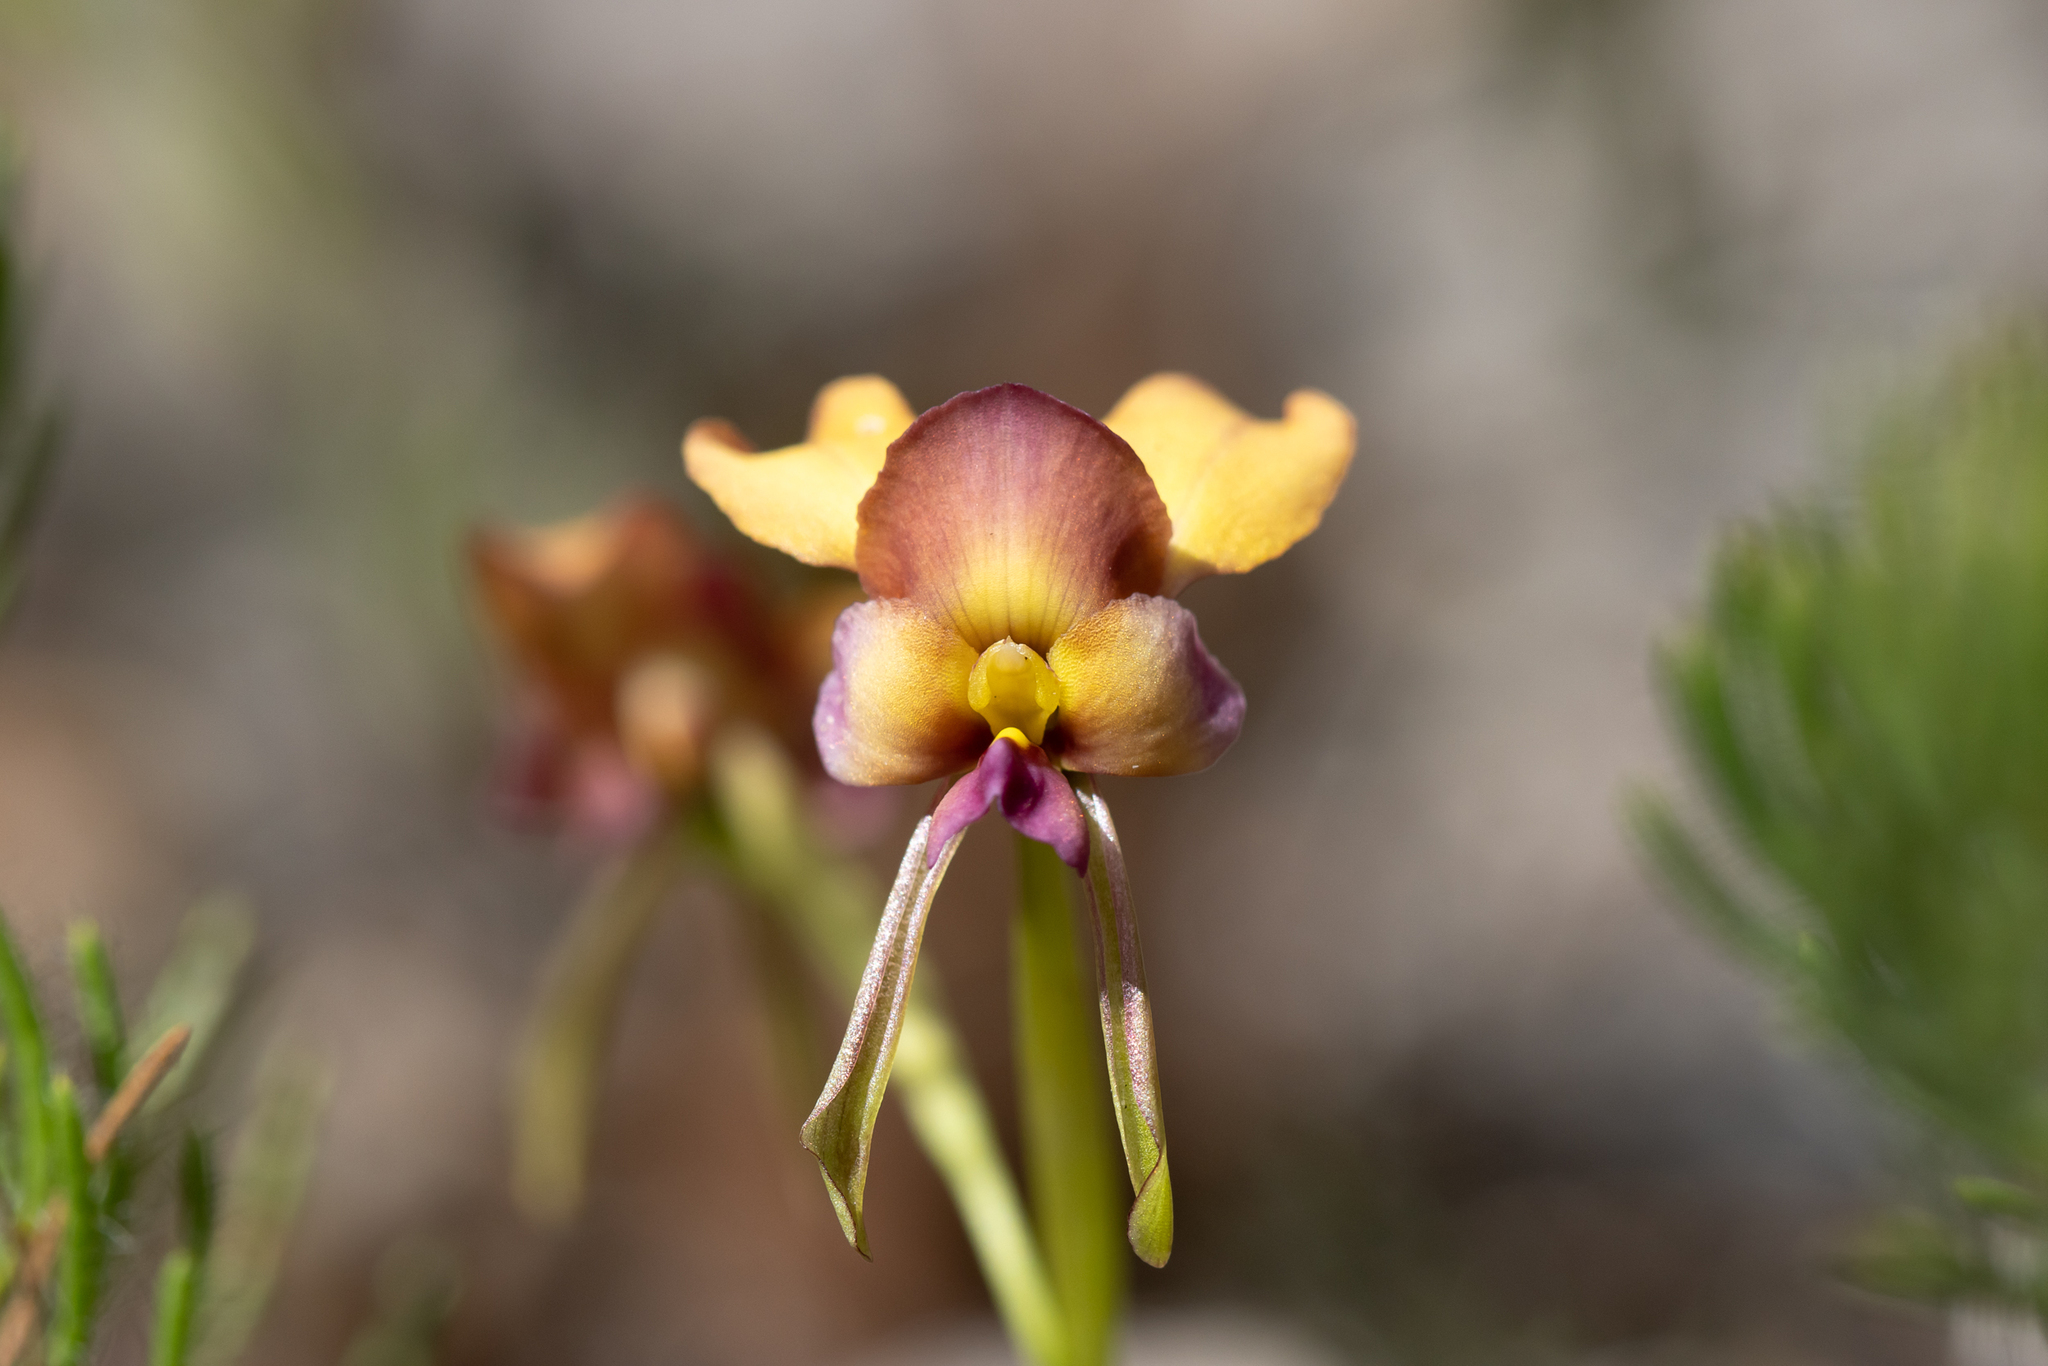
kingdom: Plantae
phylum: Tracheophyta
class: Liliopsida
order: Asparagales
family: Orchidaceae
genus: Diuris
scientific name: Diuris longifolia
